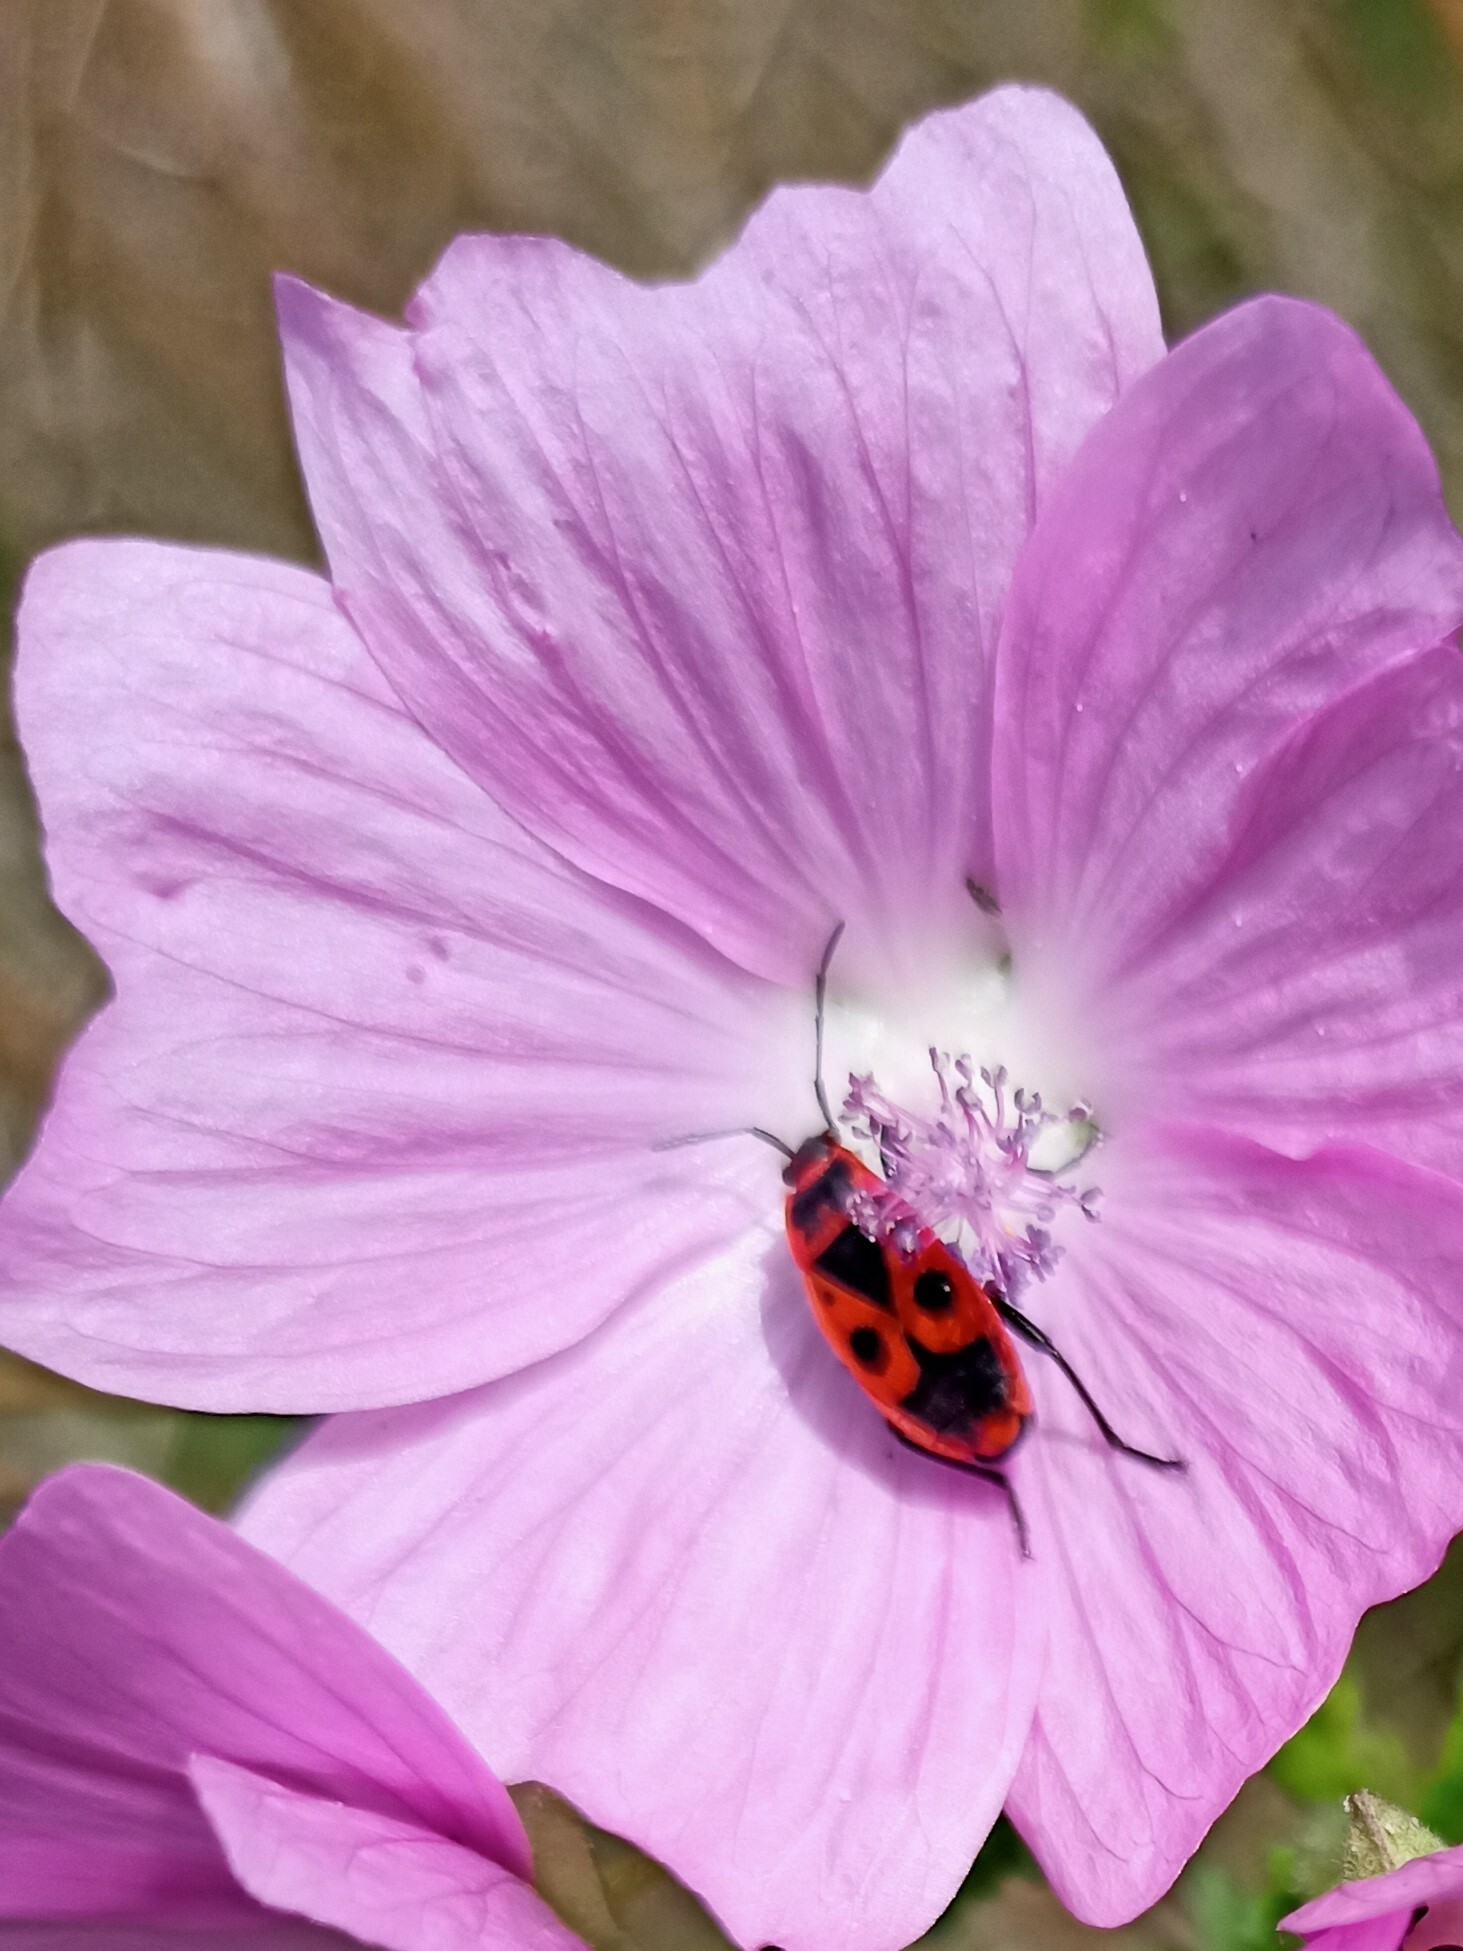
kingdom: Animalia
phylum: Arthropoda
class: Insecta
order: Hemiptera
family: Pyrrhocoridae
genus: Pyrrhocoris
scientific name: Pyrrhocoris apterus
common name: Firebug
